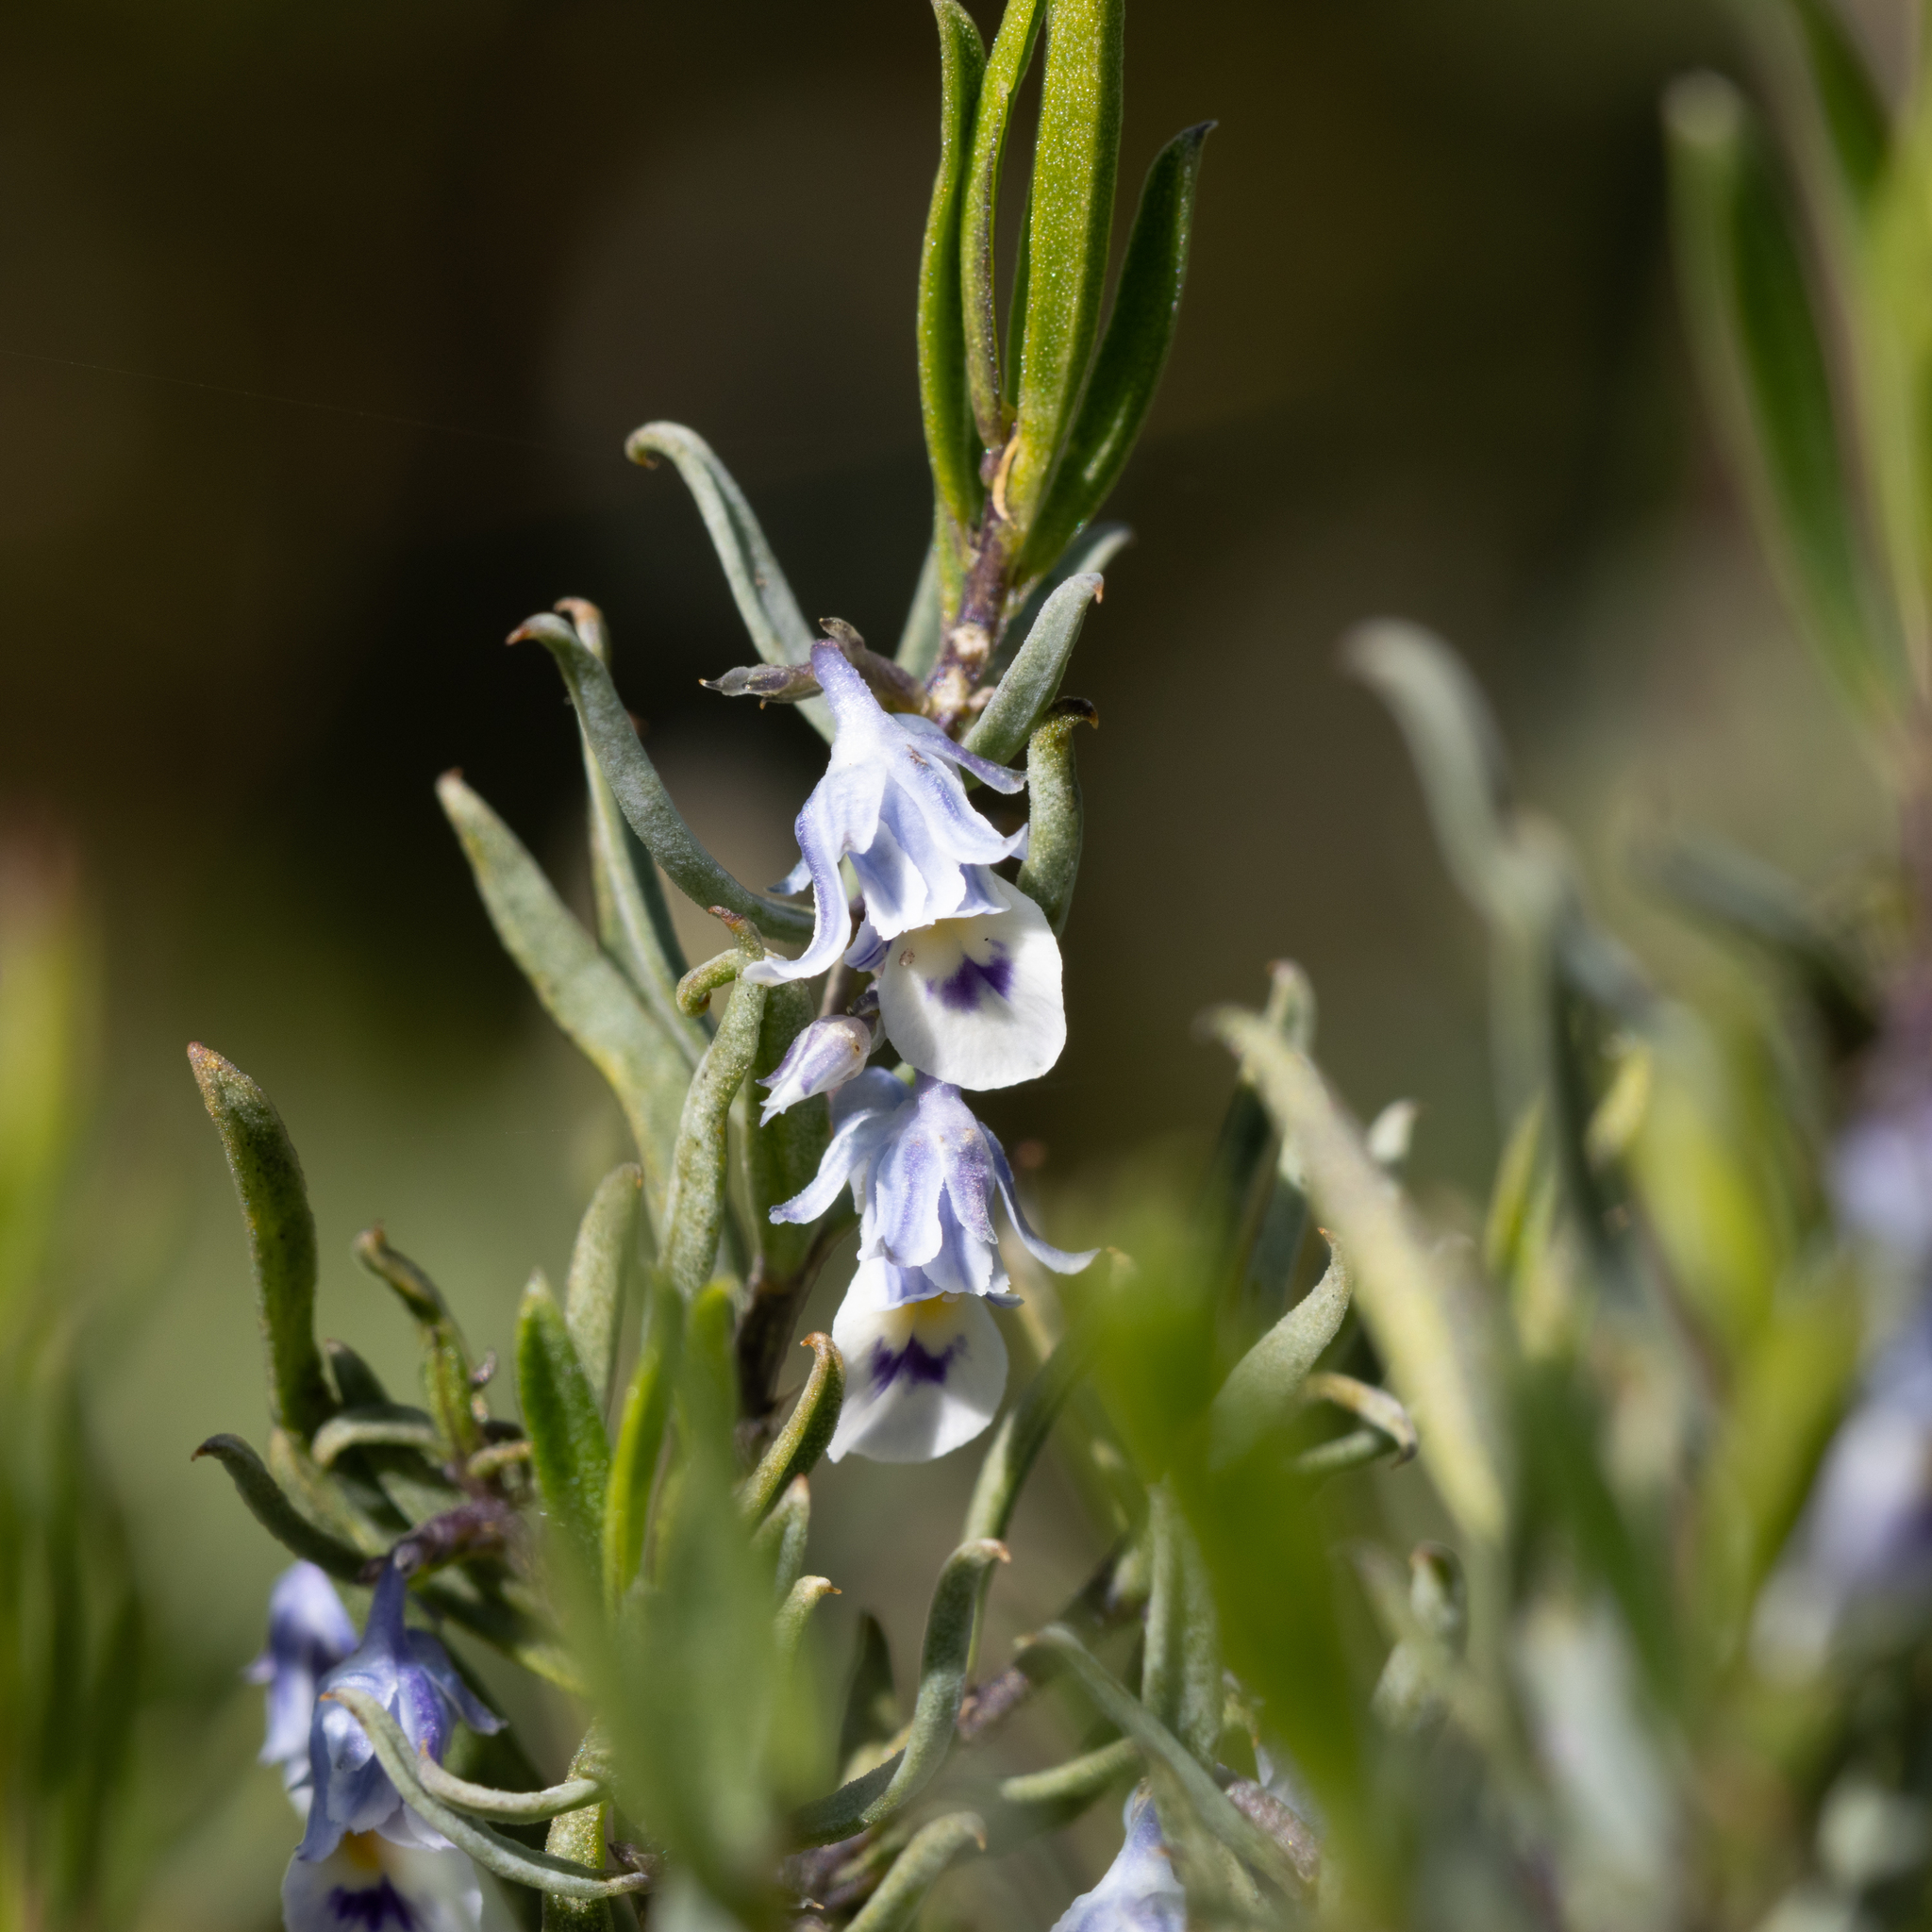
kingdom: Plantae
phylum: Tracheophyta
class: Magnoliopsida
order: Malpighiales
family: Violaceae
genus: Pigea
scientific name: Pigea floribunda
